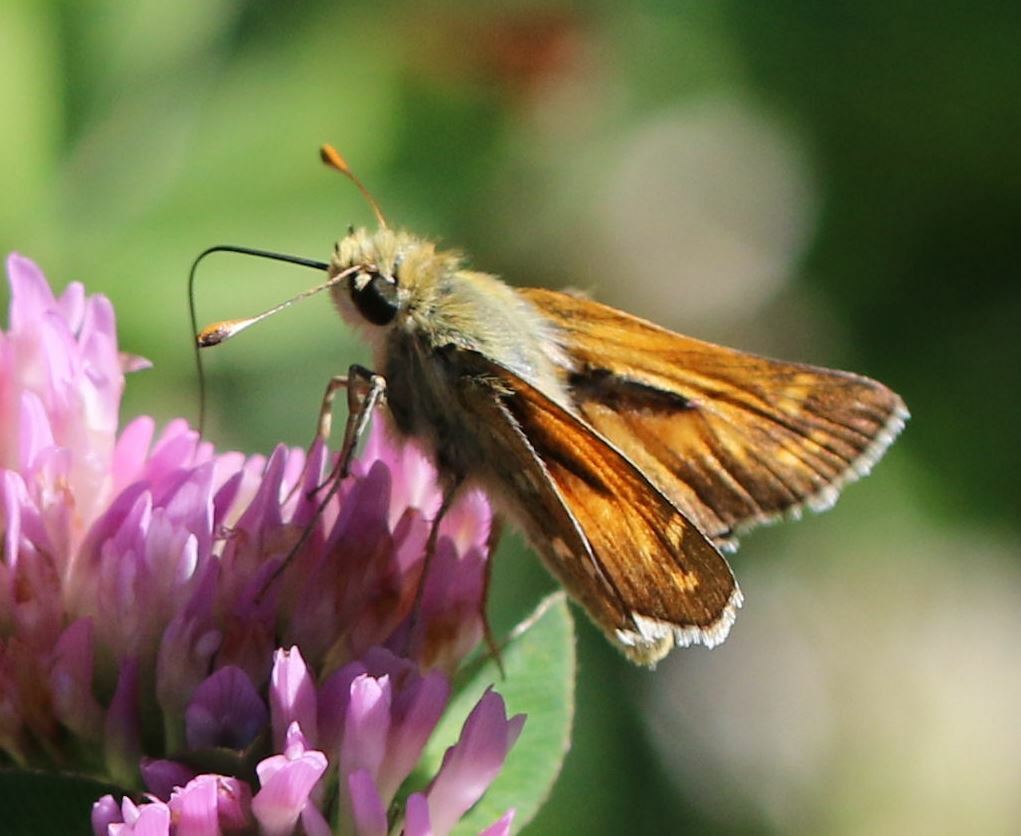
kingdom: Animalia
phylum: Arthropoda
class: Insecta
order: Lepidoptera
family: Hesperiidae
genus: Hesperia
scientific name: Hesperia comma
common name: Common branded skipper
